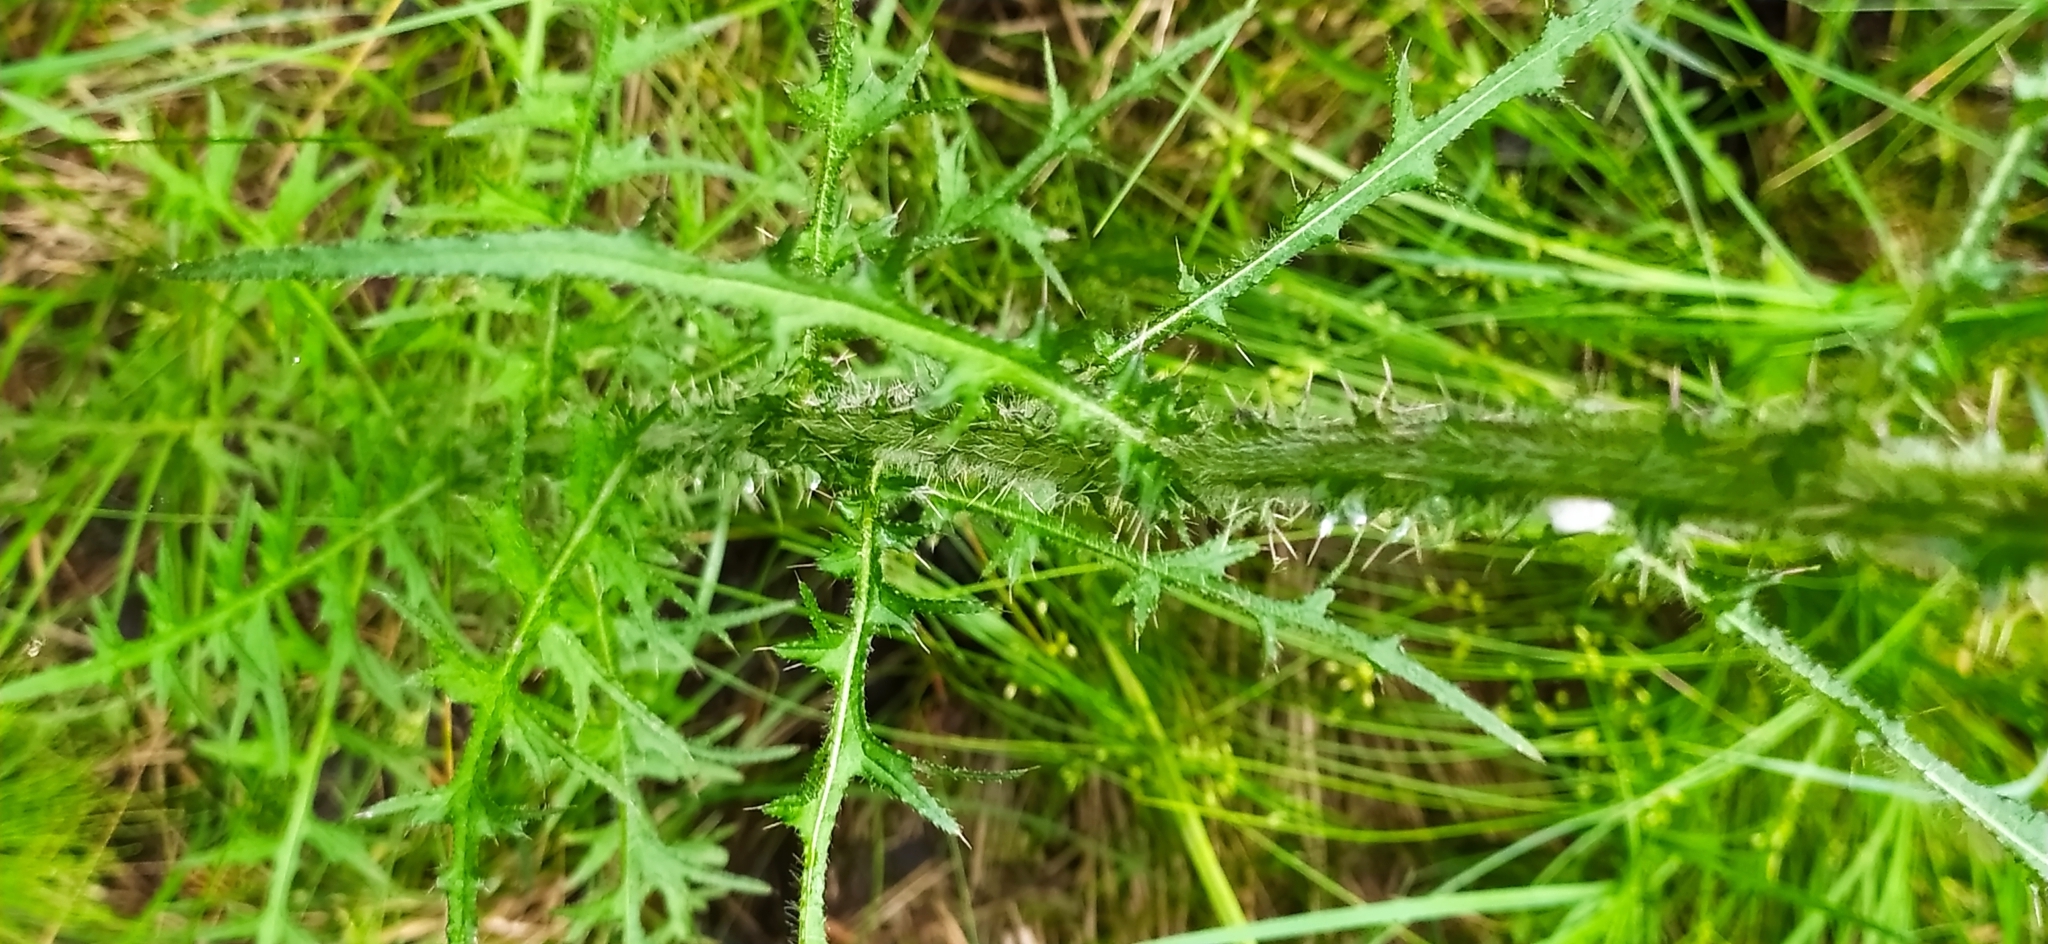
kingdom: Plantae
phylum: Tracheophyta
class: Magnoliopsida
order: Asterales
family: Asteraceae
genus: Cirsium
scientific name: Cirsium palustre
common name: Marsh thistle
